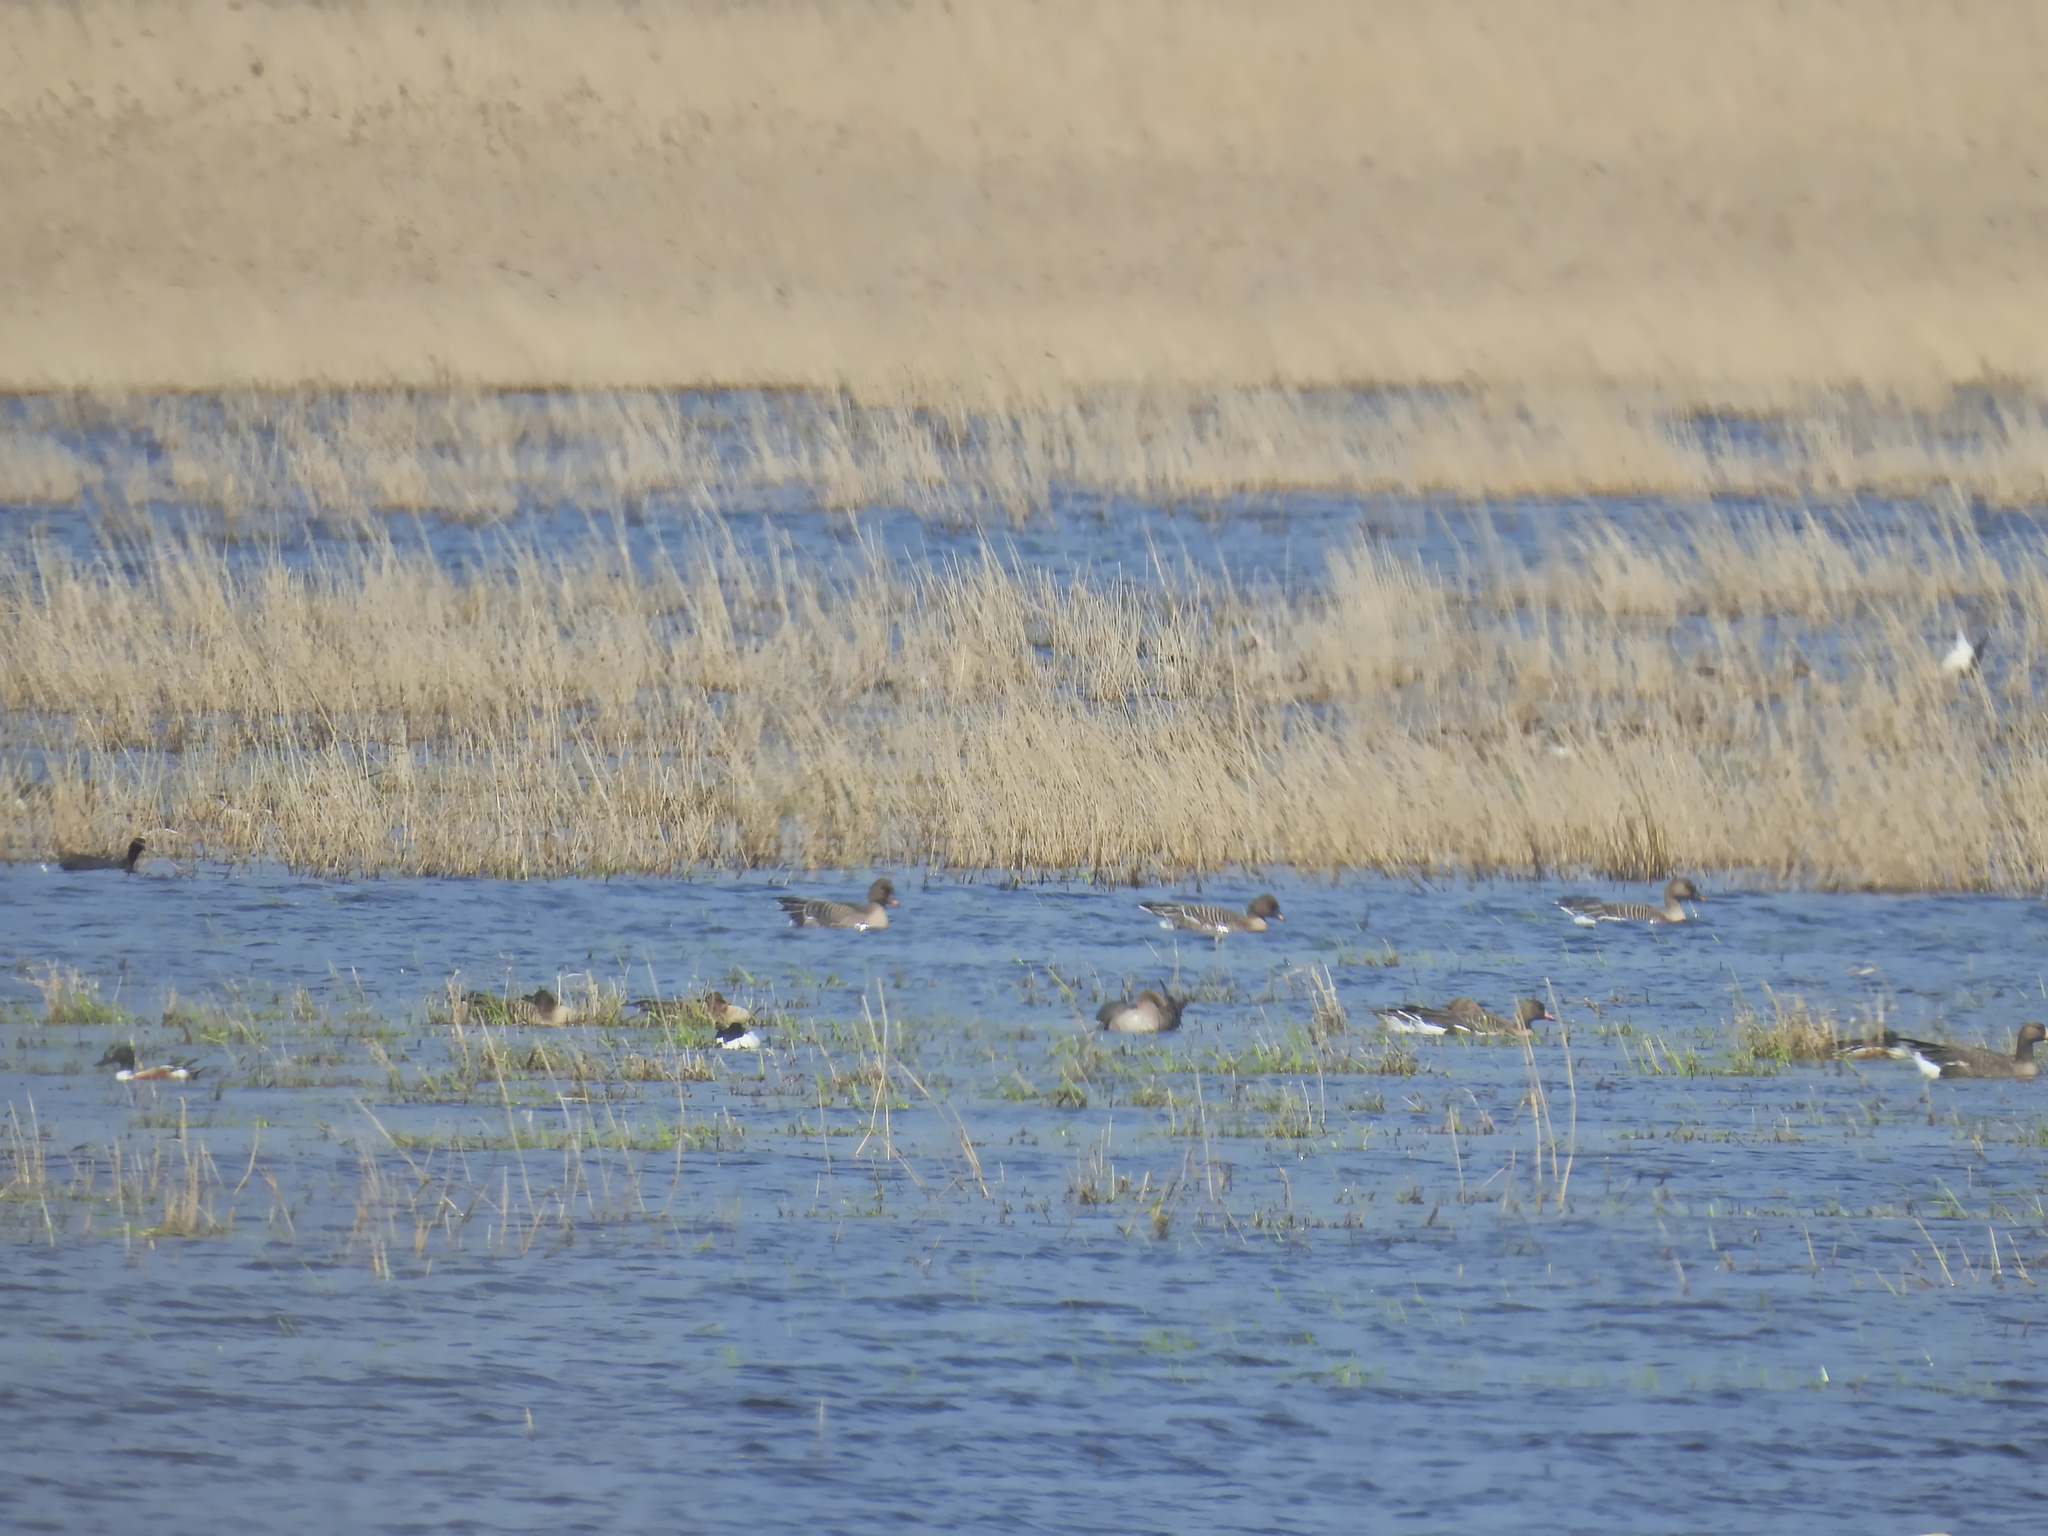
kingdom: Animalia
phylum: Chordata
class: Aves
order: Anseriformes
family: Anatidae
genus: Anser
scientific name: Anser albifrons
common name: Greater white-fronted goose
